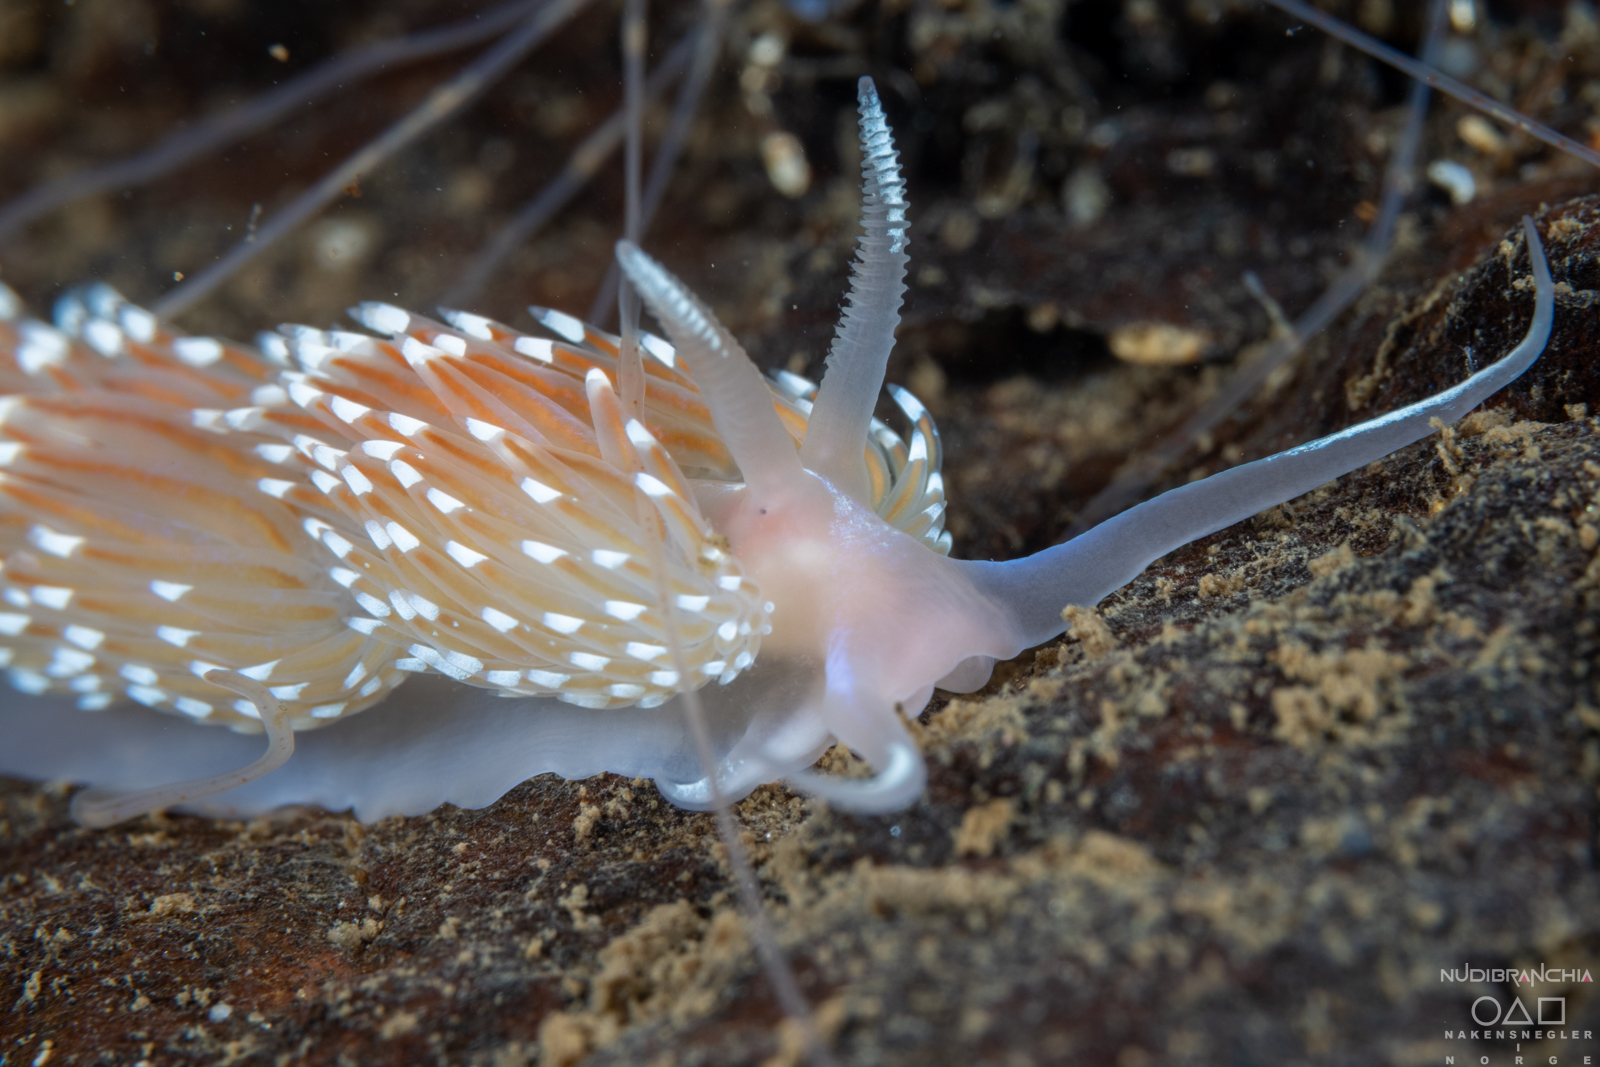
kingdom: Animalia
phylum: Mollusca
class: Gastropoda
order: Nudibranchia
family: Facelinidae
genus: Facelina
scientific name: Facelina bostoniensis
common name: Boston facelina
